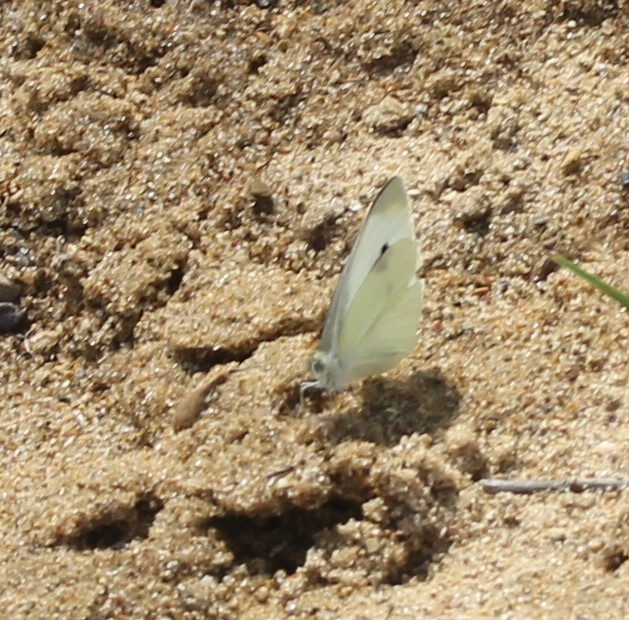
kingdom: Animalia
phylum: Arthropoda
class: Insecta
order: Lepidoptera
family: Pieridae
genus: Pieris
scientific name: Pieris rapae
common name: Small white
